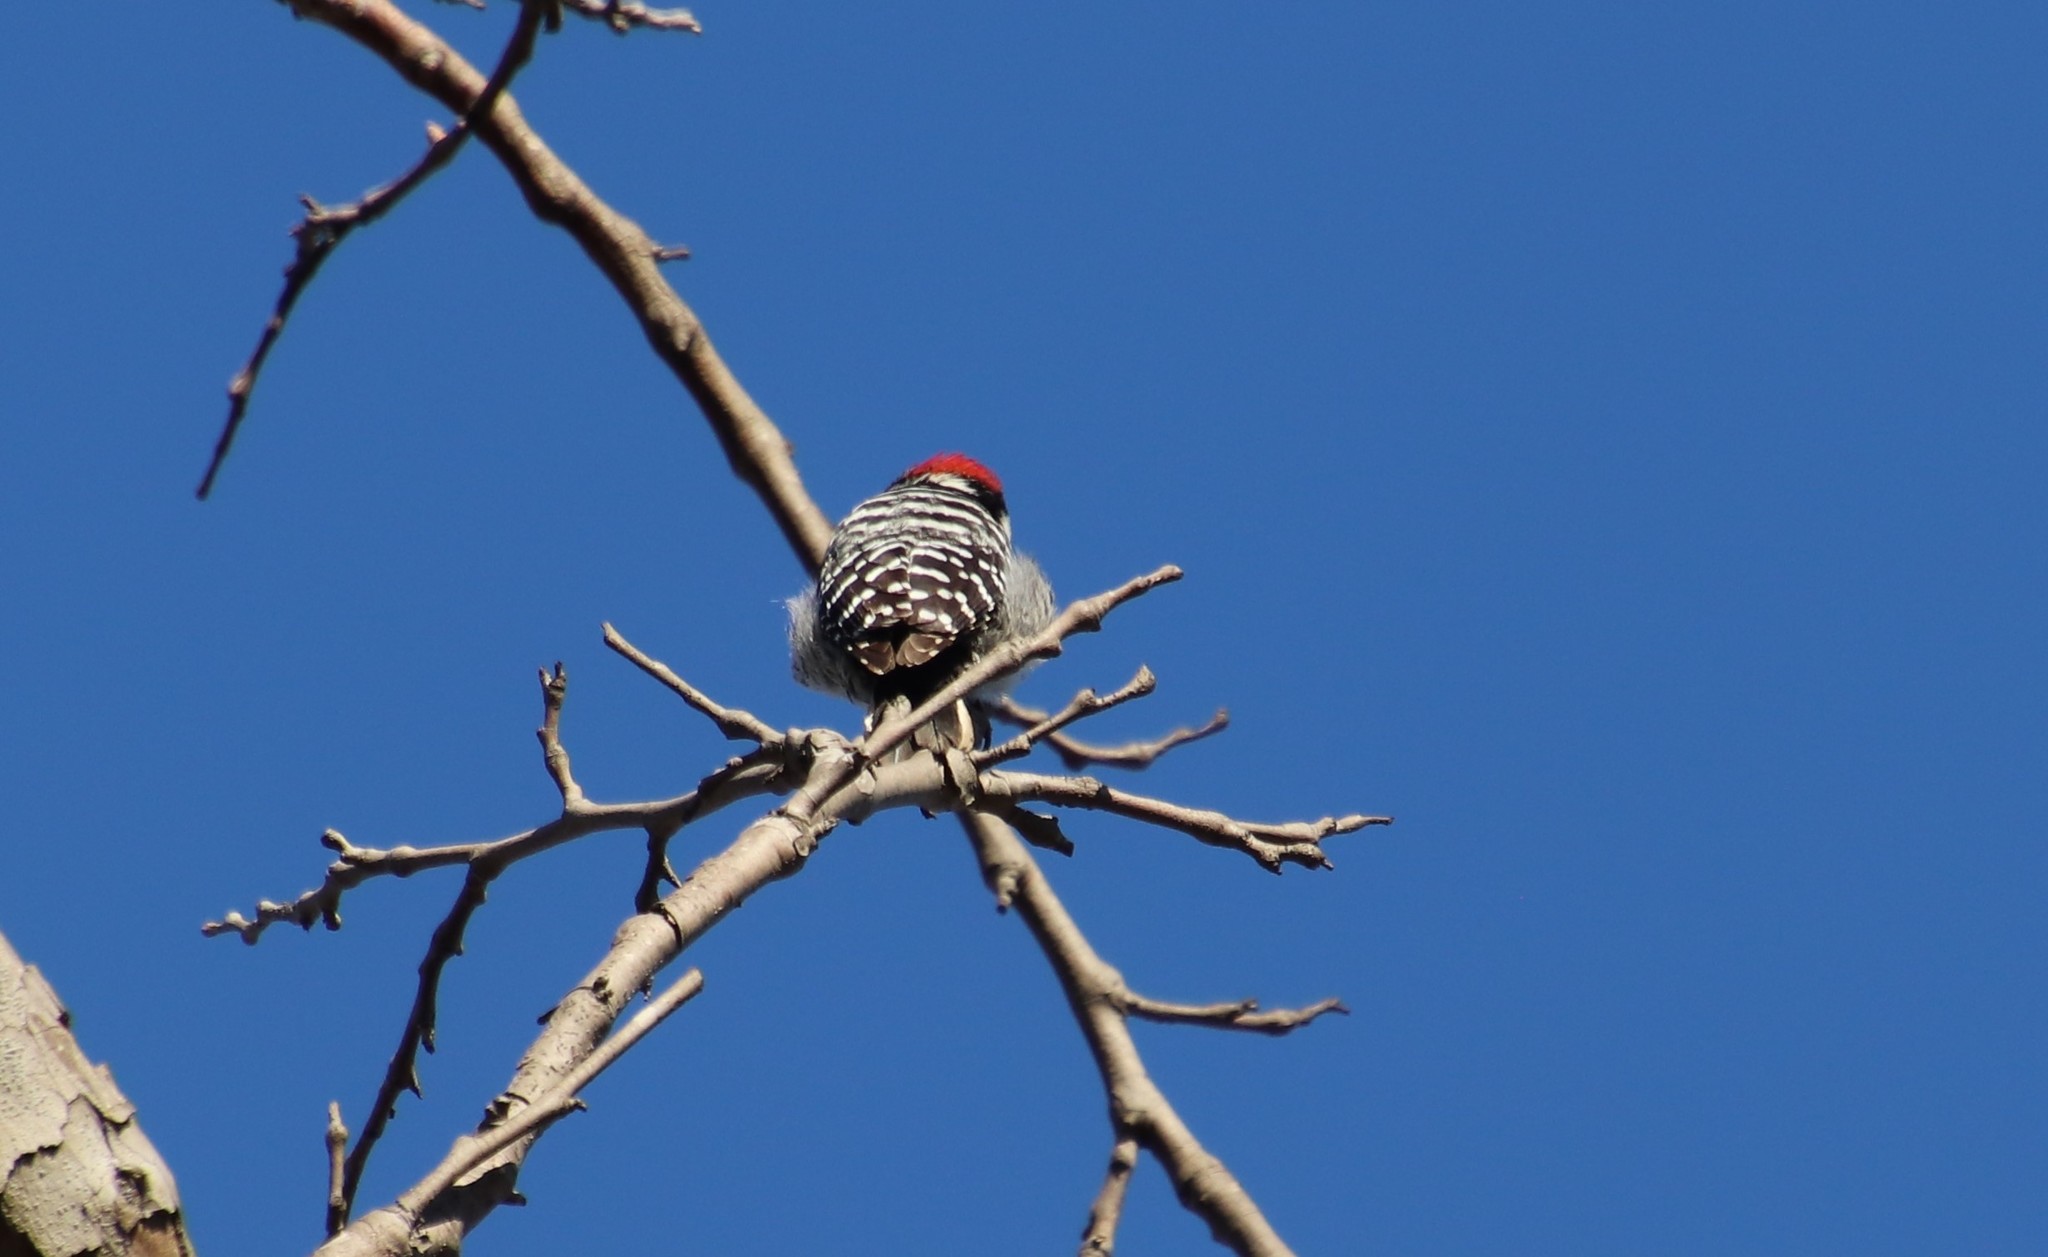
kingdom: Animalia
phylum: Chordata
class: Aves
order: Piciformes
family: Picidae
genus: Dryobates
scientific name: Dryobates nuttallii
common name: Nuttall's woodpecker
